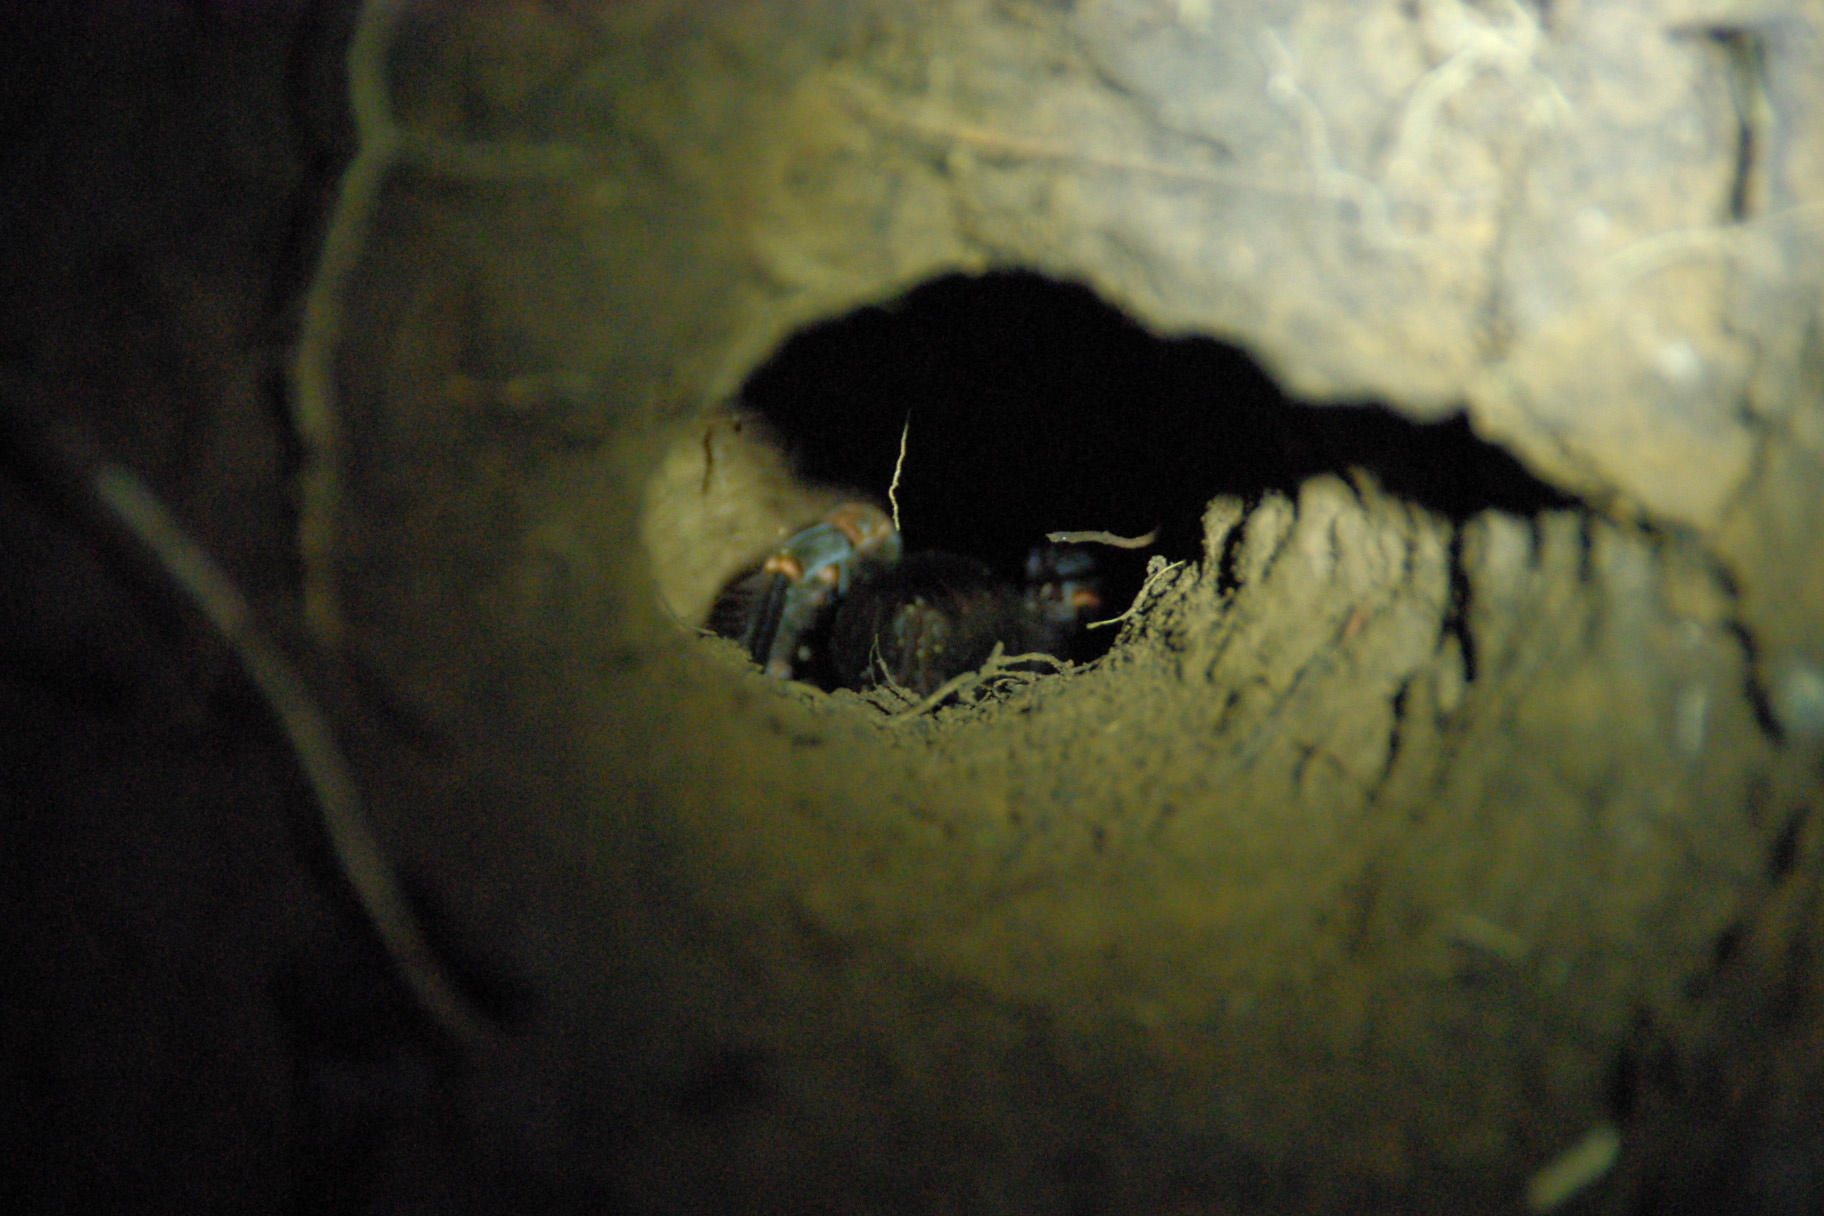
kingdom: Animalia
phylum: Arthropoda
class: Arachnida
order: Araneae
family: Theraphosidae
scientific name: Theraphosidae
